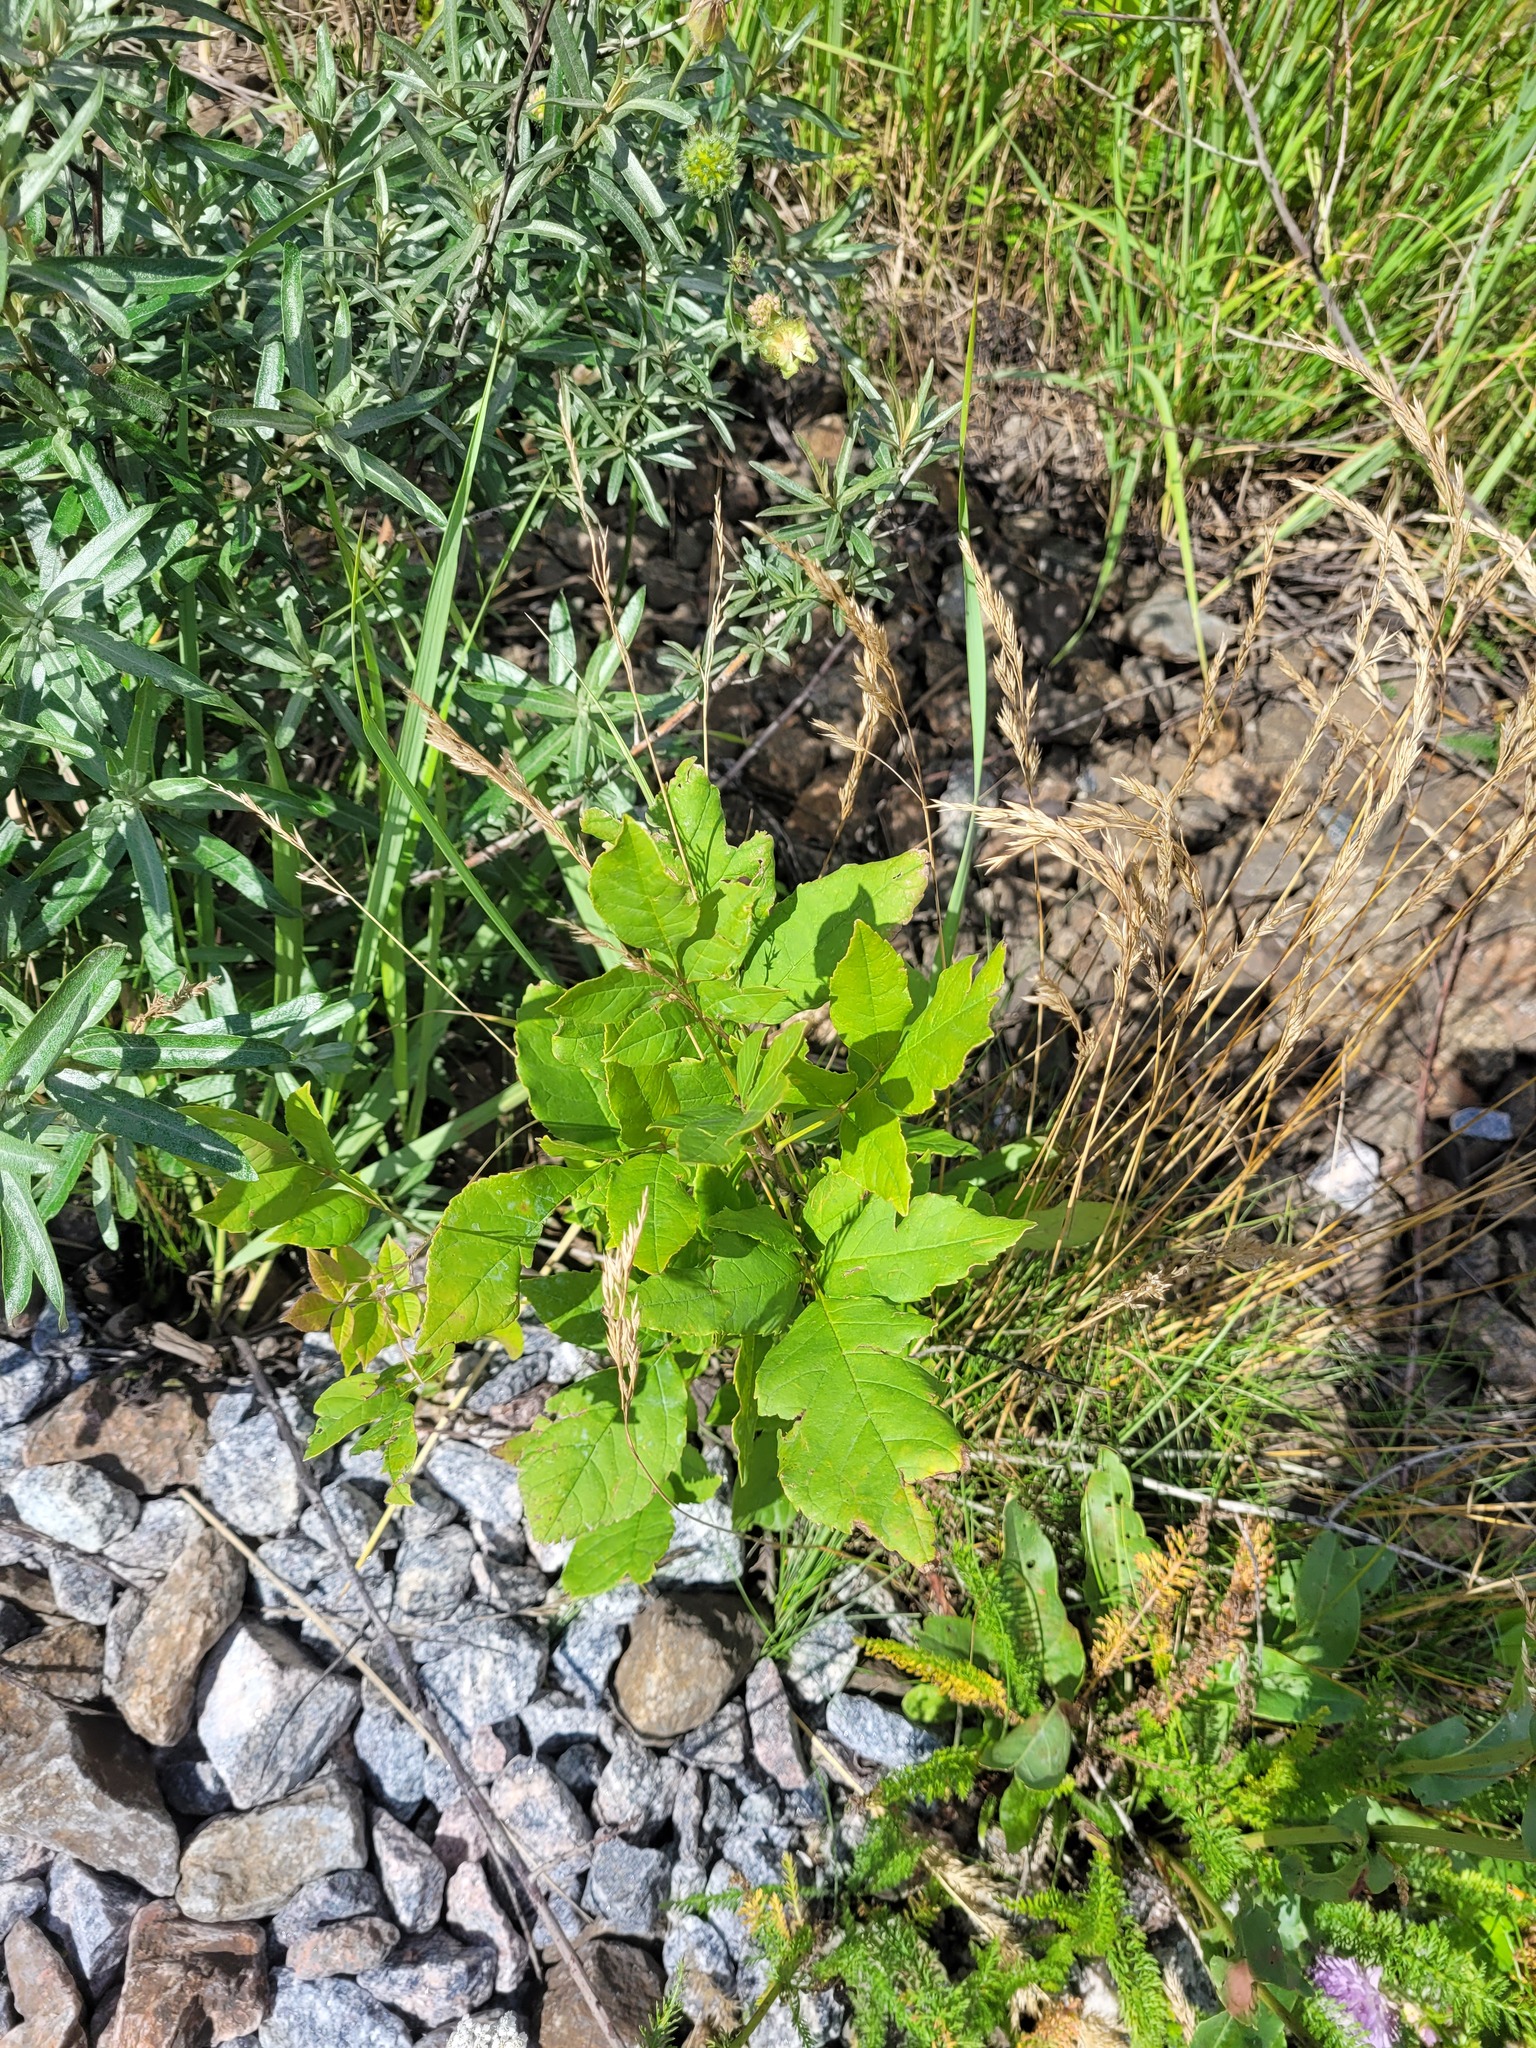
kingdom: Plantae
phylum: Tracheophyta
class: Magnoliopsida
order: Lamiales
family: Oleaceae
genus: Fraxinus
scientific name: Fraxinus pennsylvanica
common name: Green ash
